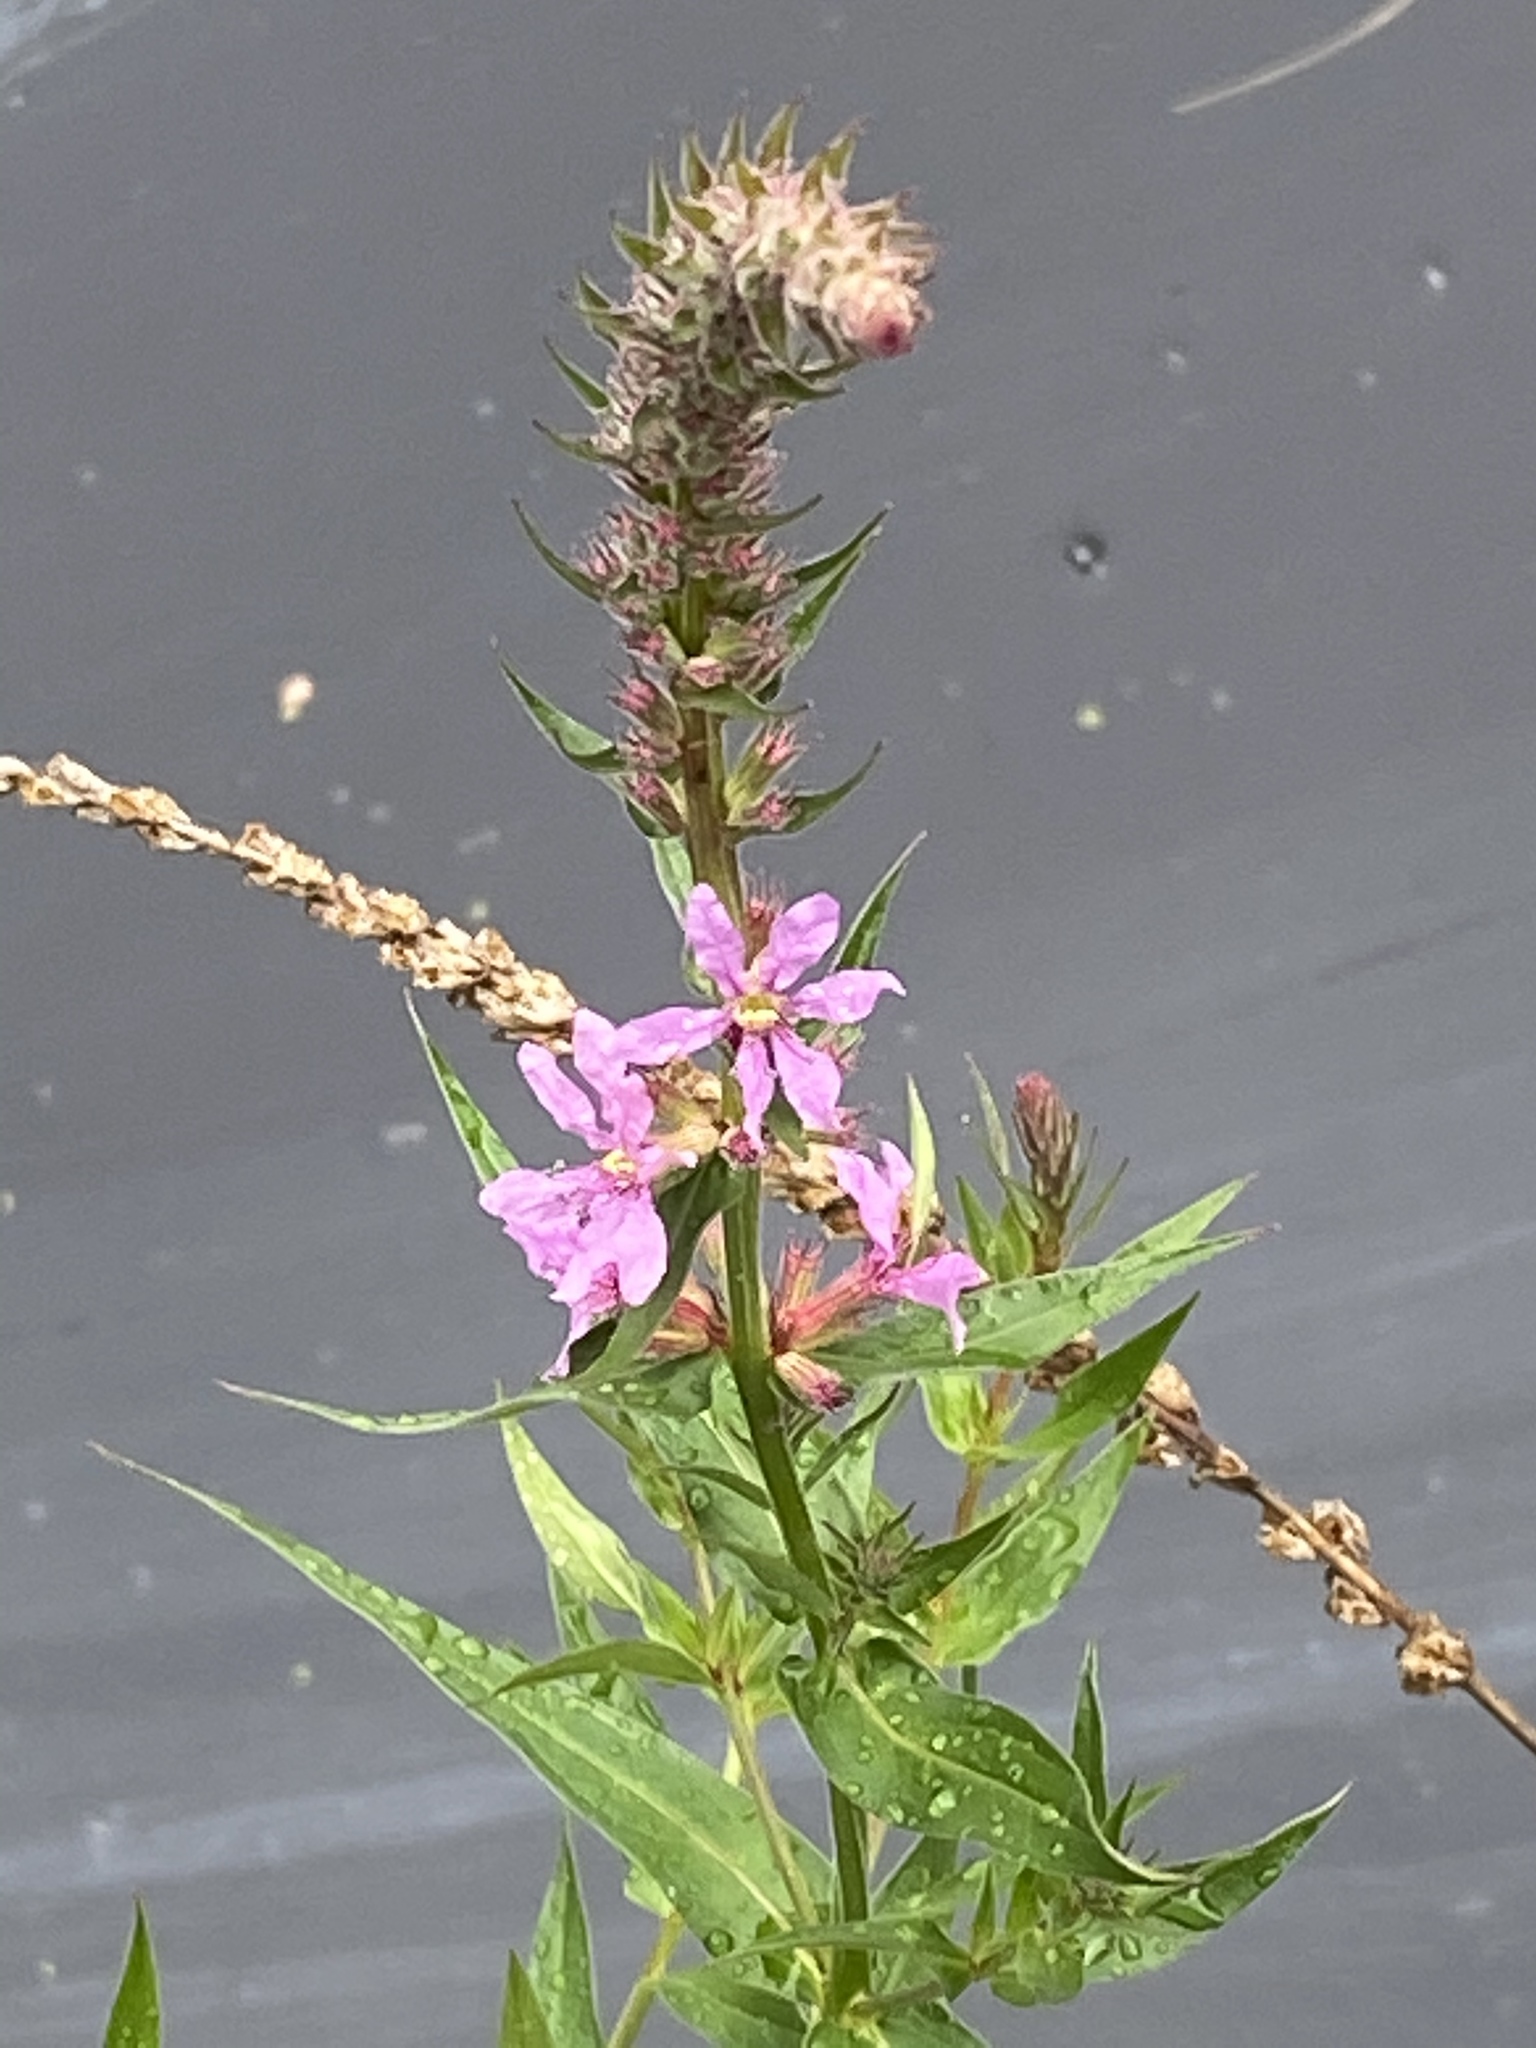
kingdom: Plantae
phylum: Tracheophyta
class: Magnoliopsida
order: Myrtales
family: Lythraceae
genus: Lythrum
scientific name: Lythrum salicaria
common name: Purple loosestrife
